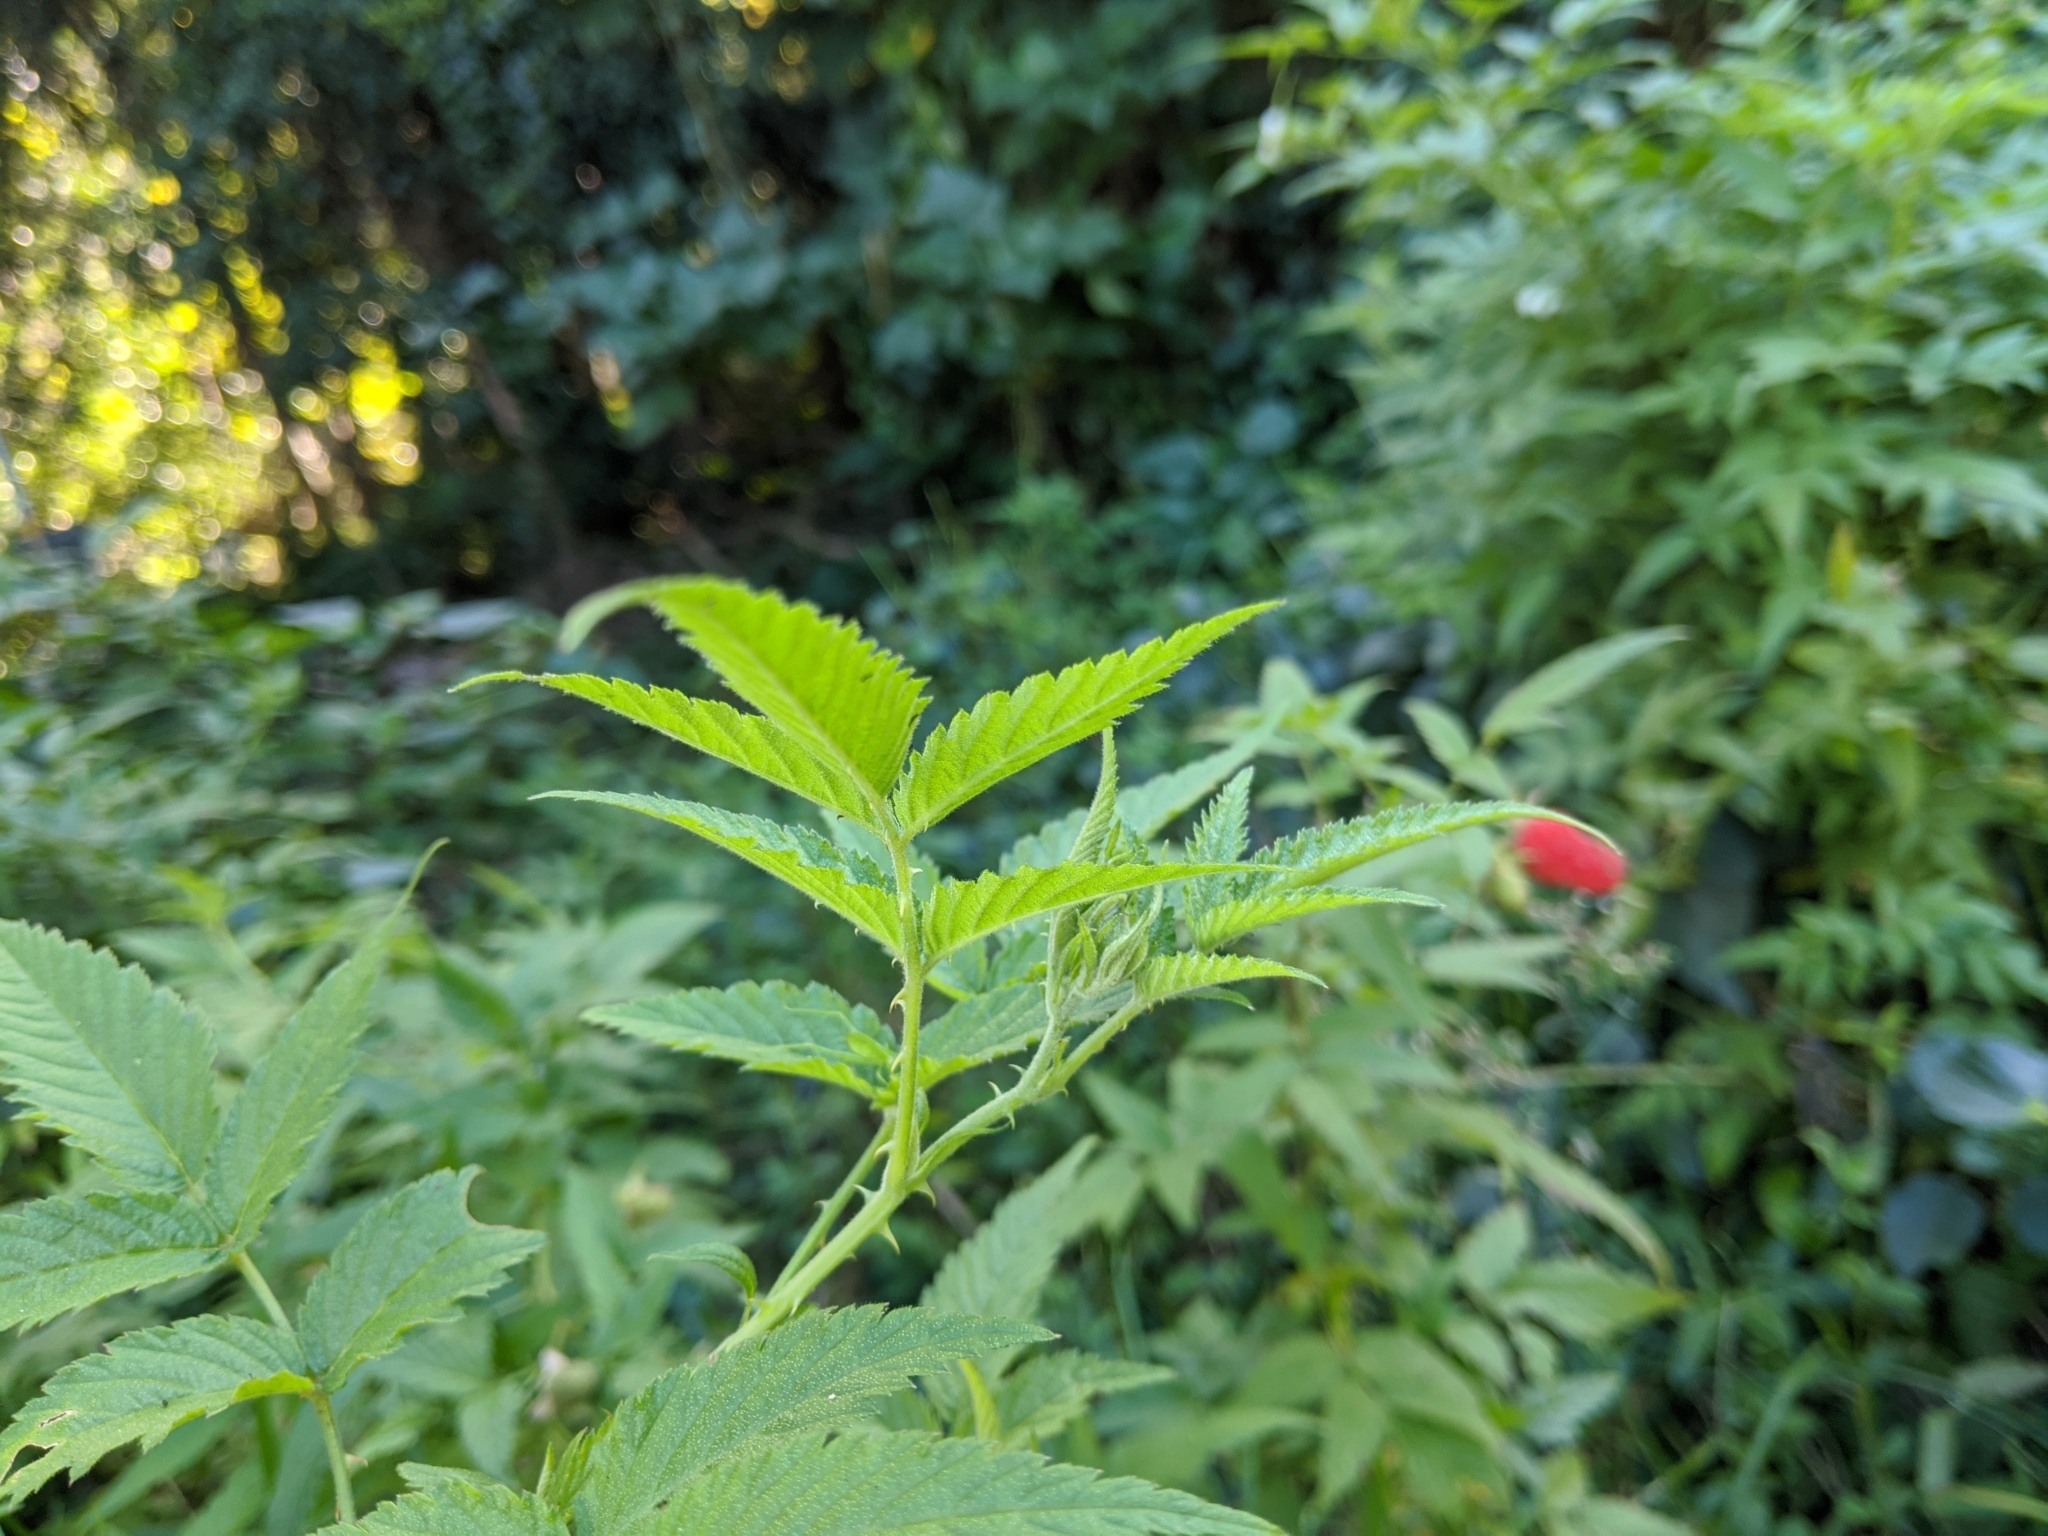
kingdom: Plantae
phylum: Tracheophyta
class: Magnoliopsida
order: Rosales
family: Rosaceae
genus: Rubus
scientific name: Rubus rosifolius
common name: Roseleaf raspberry
